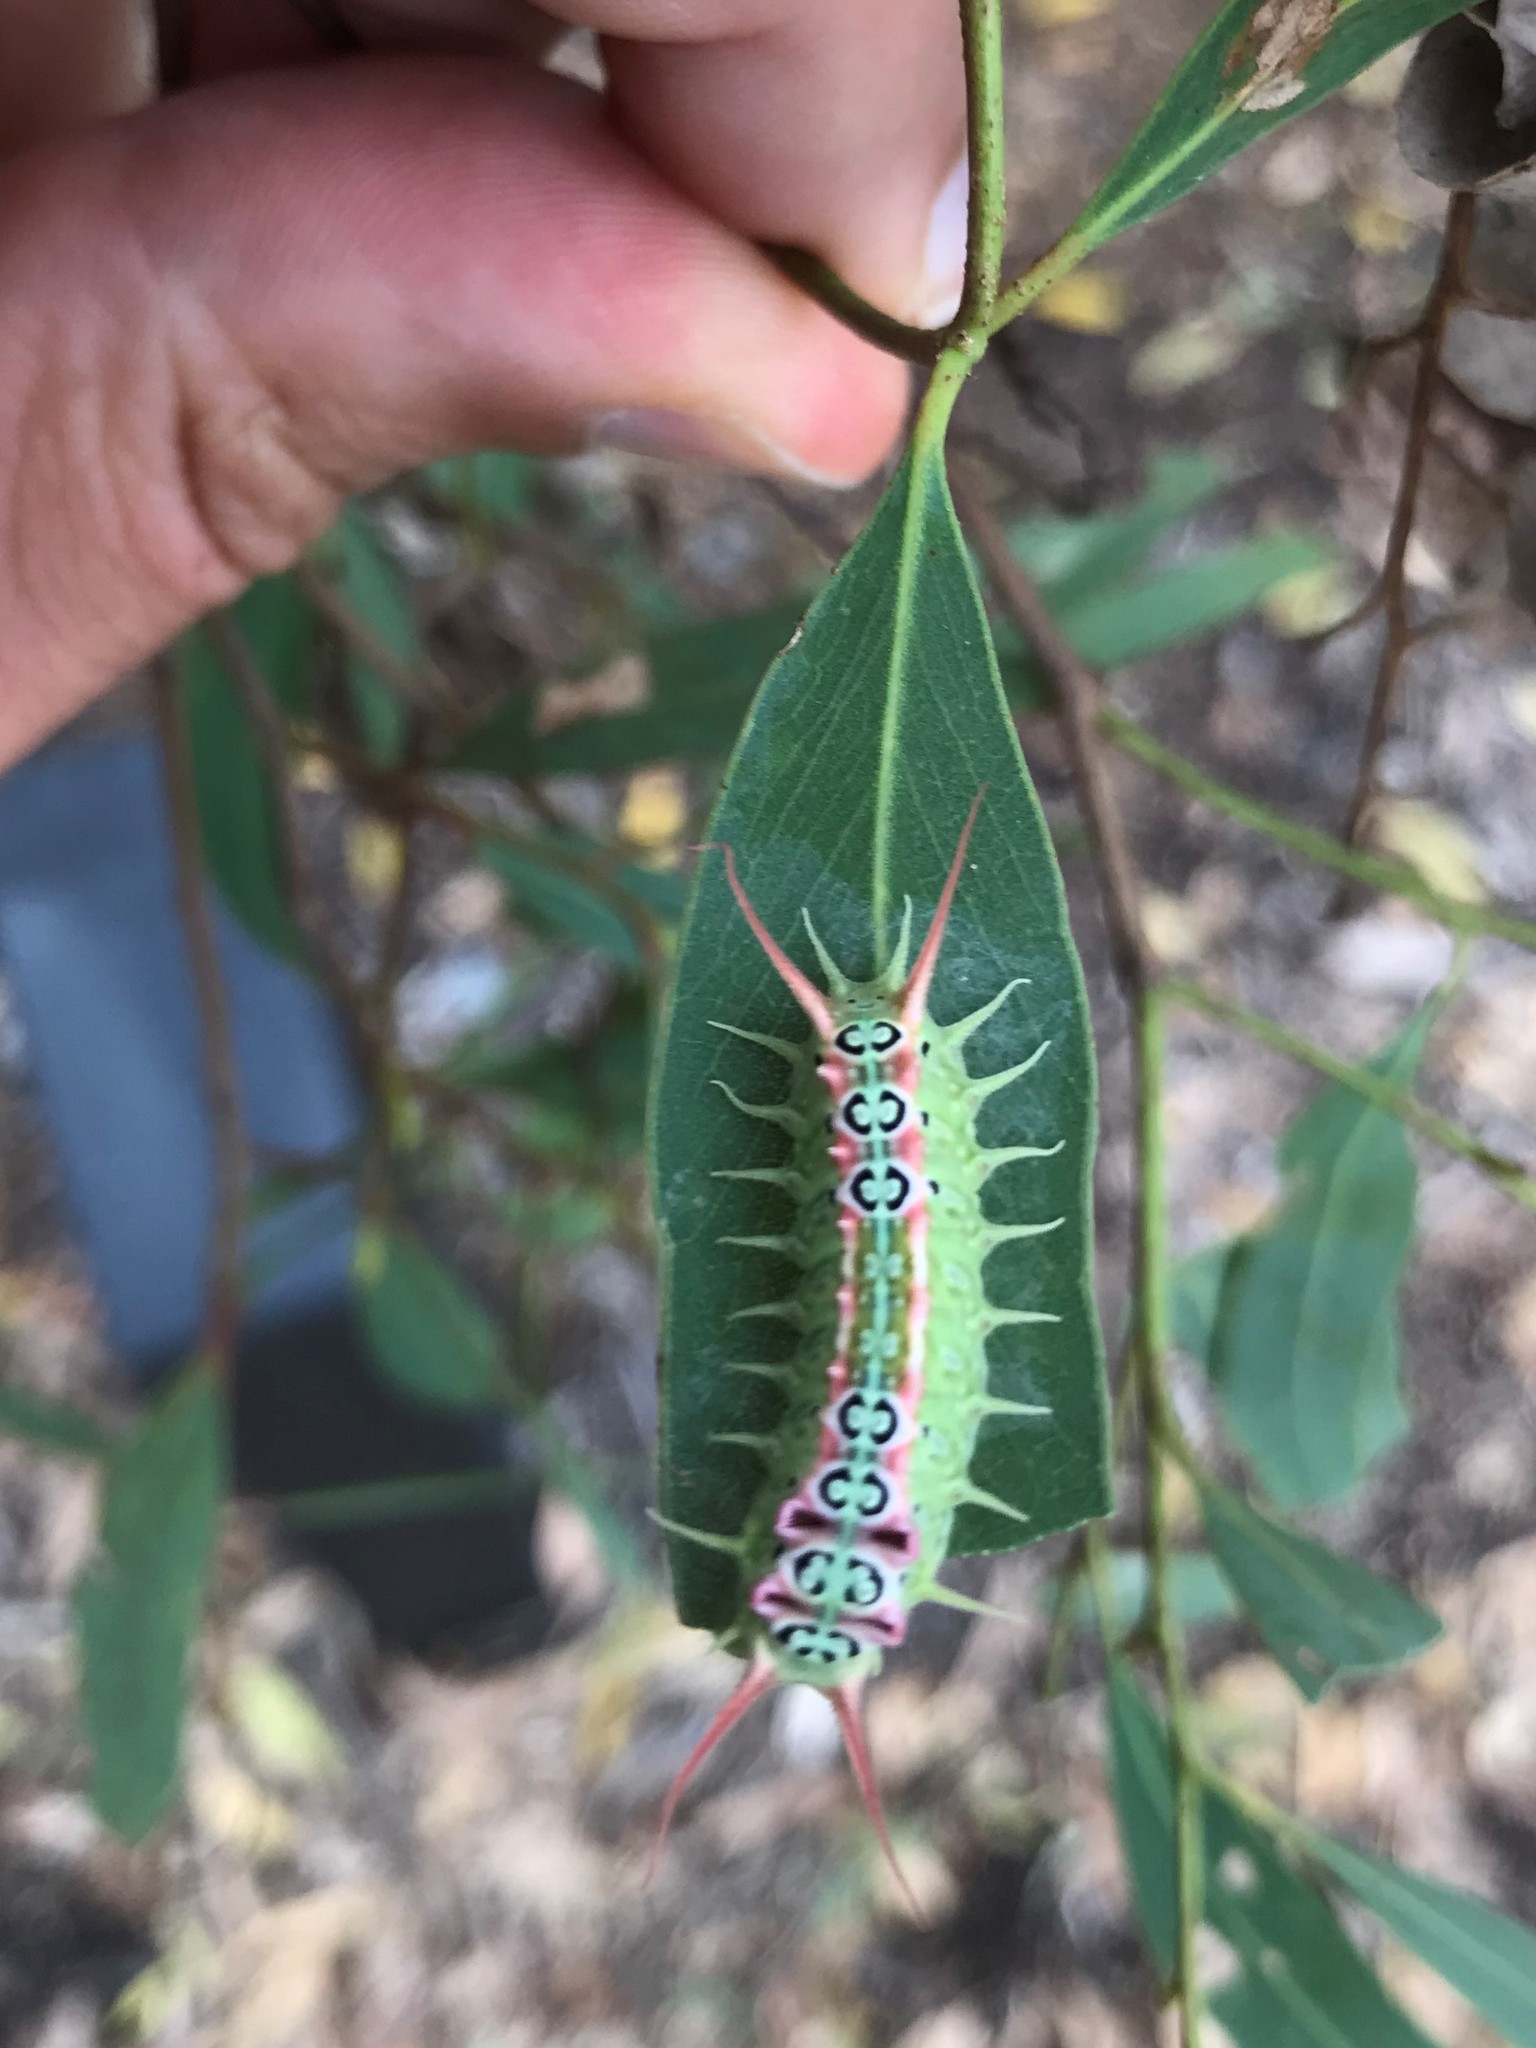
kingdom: Animalia
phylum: Arthropoda
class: Insecta
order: Lepidoptera
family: Limacodidae
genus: Doratifera
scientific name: Doratifera quadriguttata
